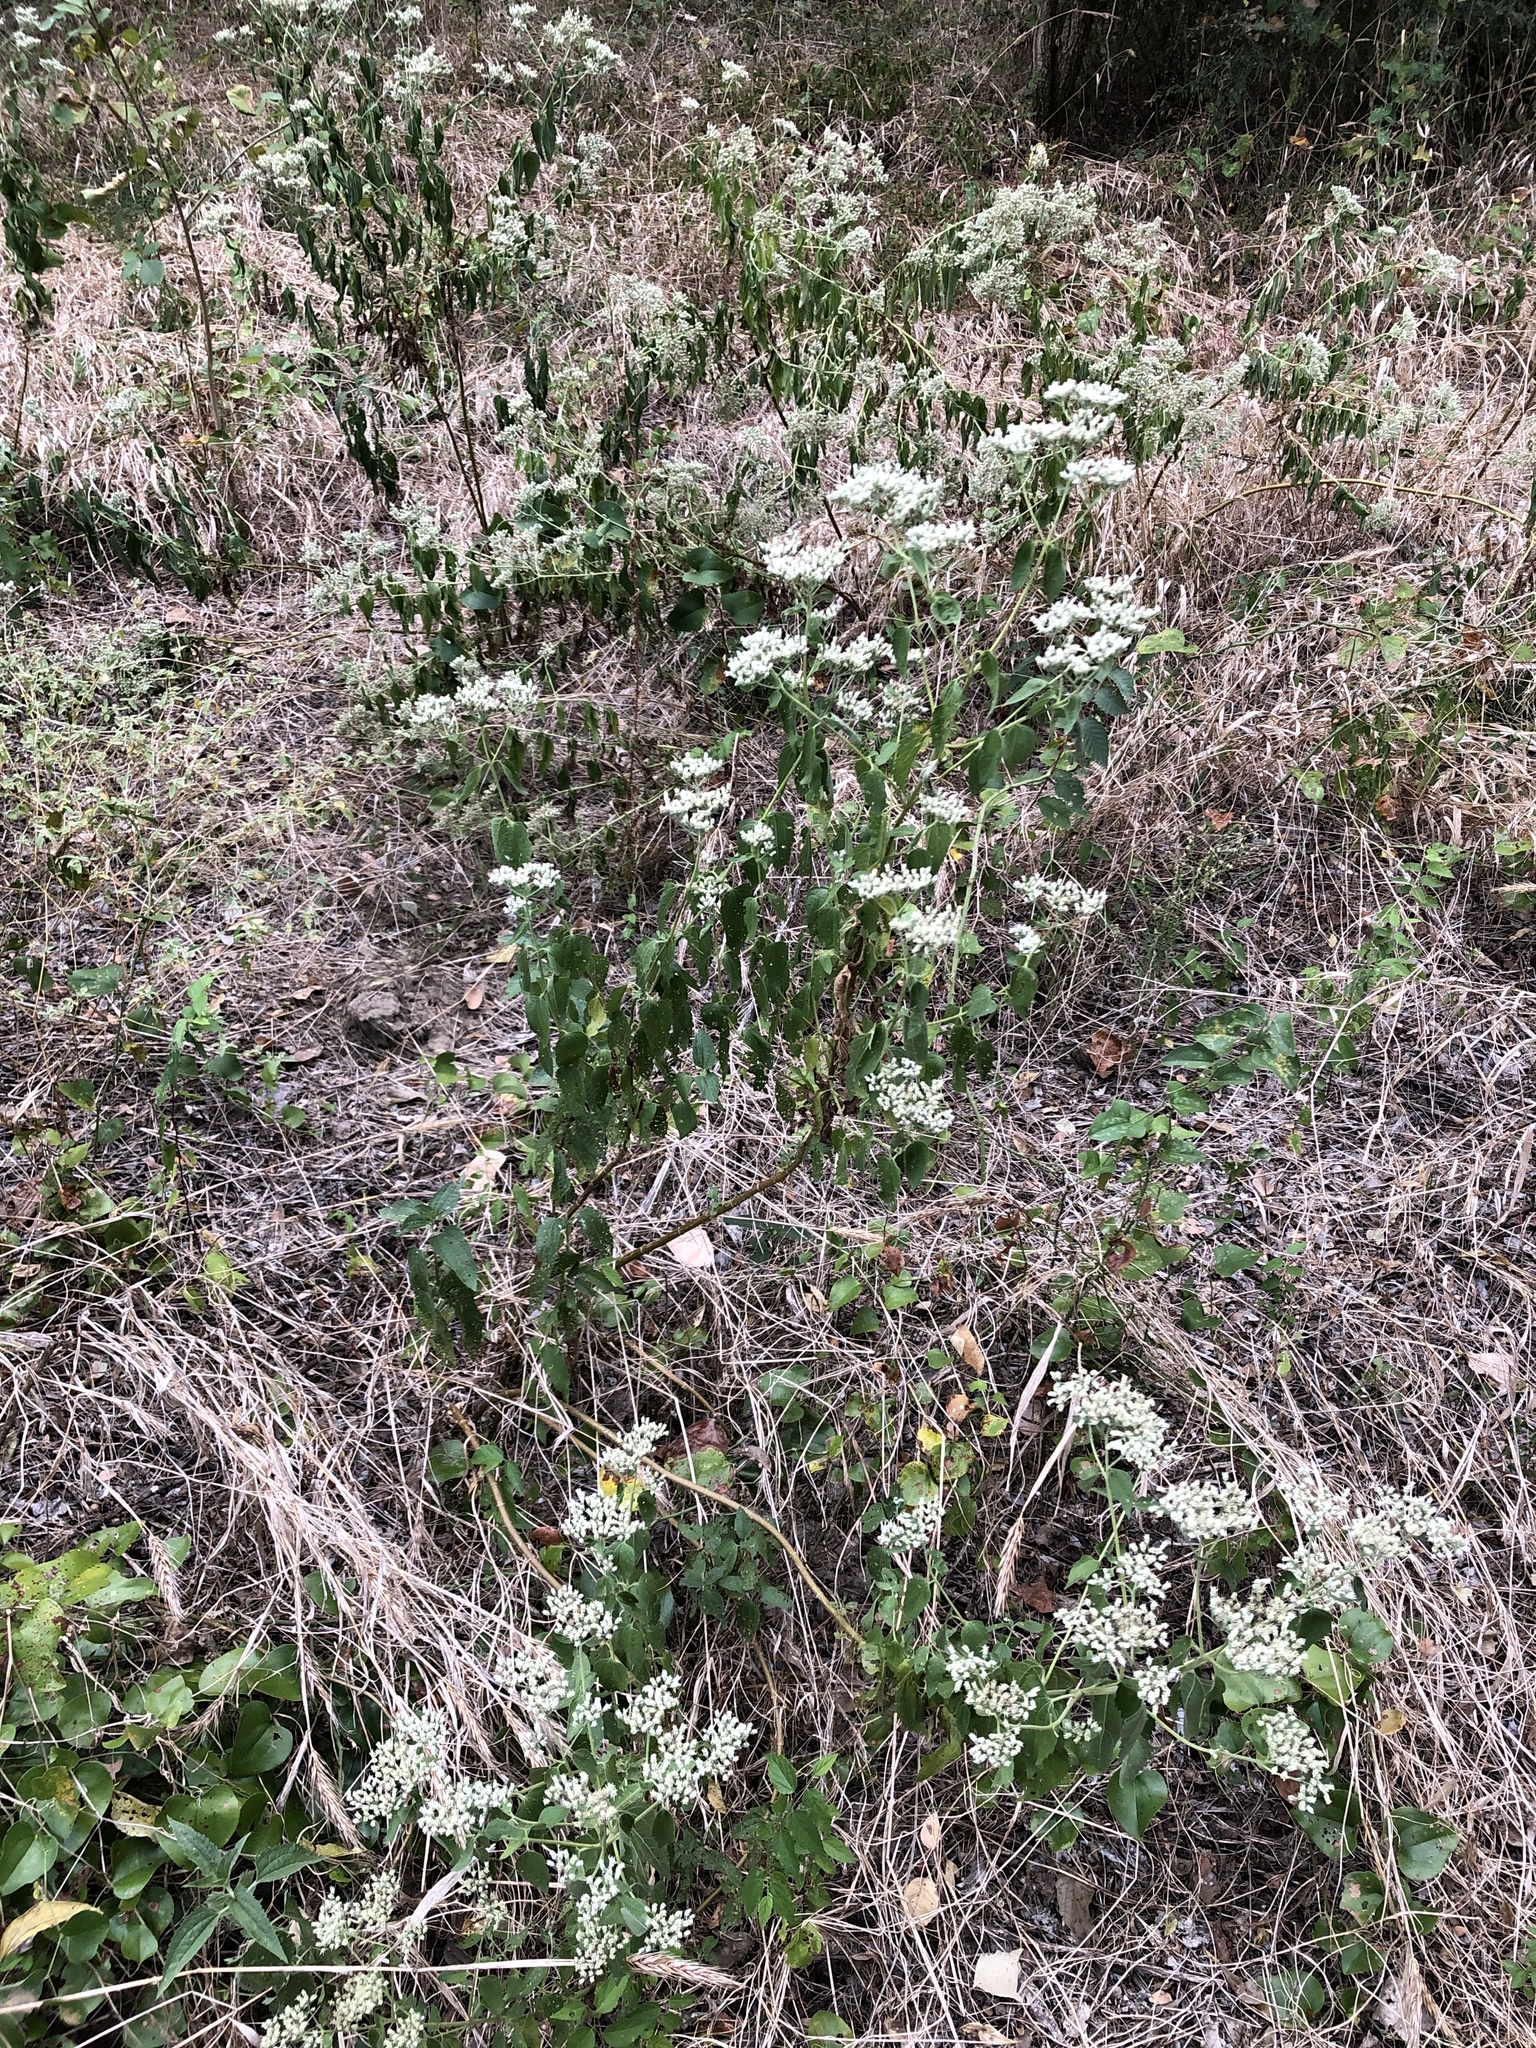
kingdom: Plantae
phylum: Tracheophyta
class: Magnoliopsida
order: Asterales
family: Asteraceae
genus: Eupatorium
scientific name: Eupatorium serotinum
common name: Late boneset
